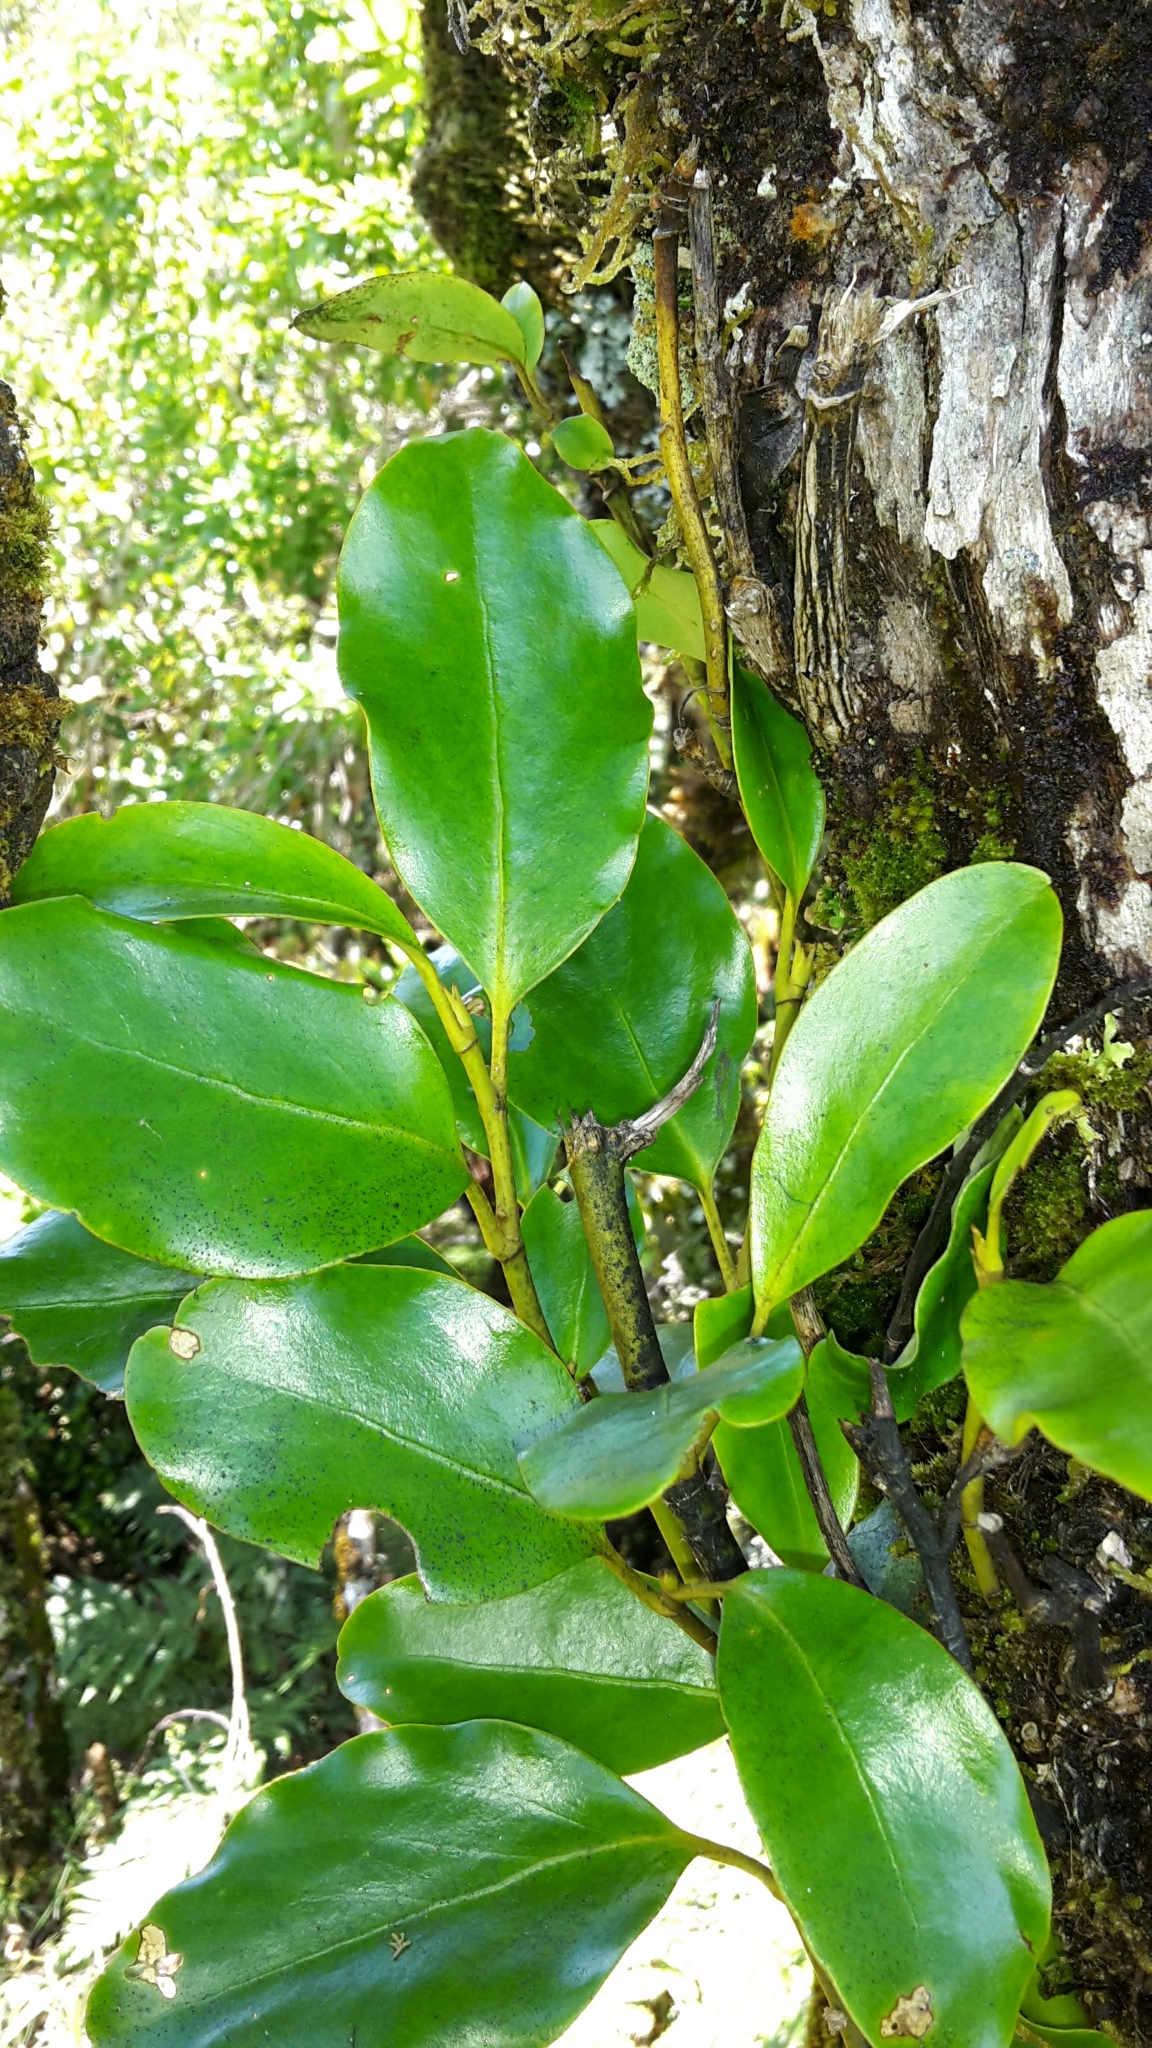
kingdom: Plantae
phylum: Tracheophyta
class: Magnoliopsida
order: Apiales
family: Griseliniaceae
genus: Griselinia
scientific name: Griselinia littoralis
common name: New zealand broadleaf
